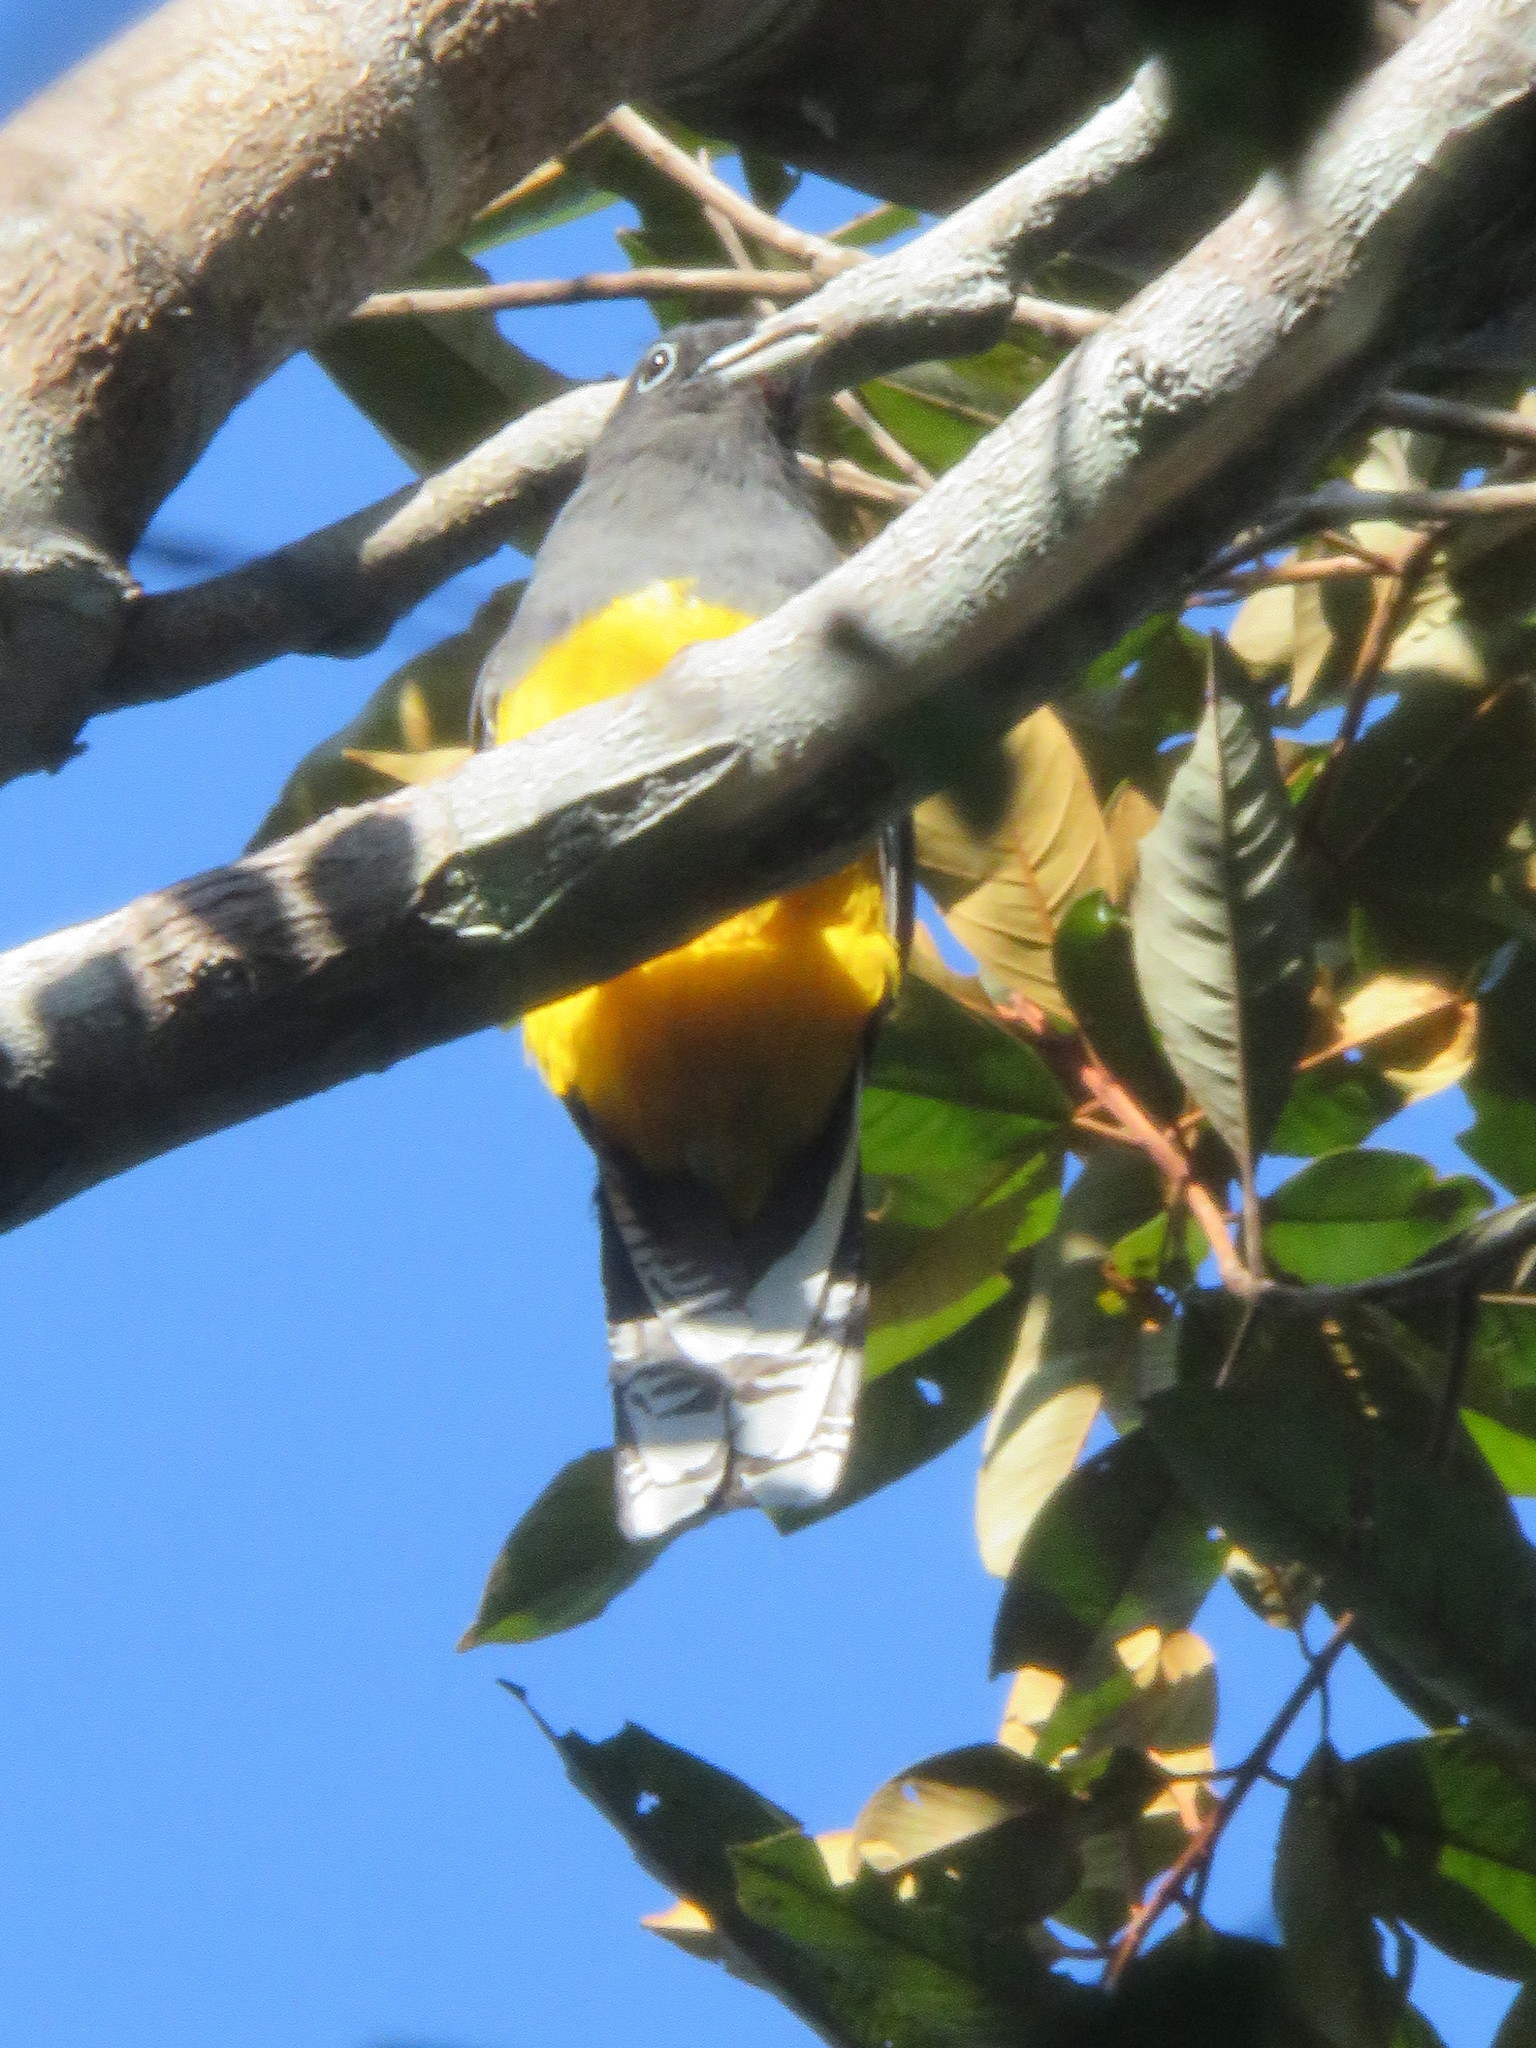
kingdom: Animalia
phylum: Chordata
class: Aves
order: Trogoniformes
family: Trogonidae
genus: Trogon
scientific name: Trogon viridis
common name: Green-backed trogon
